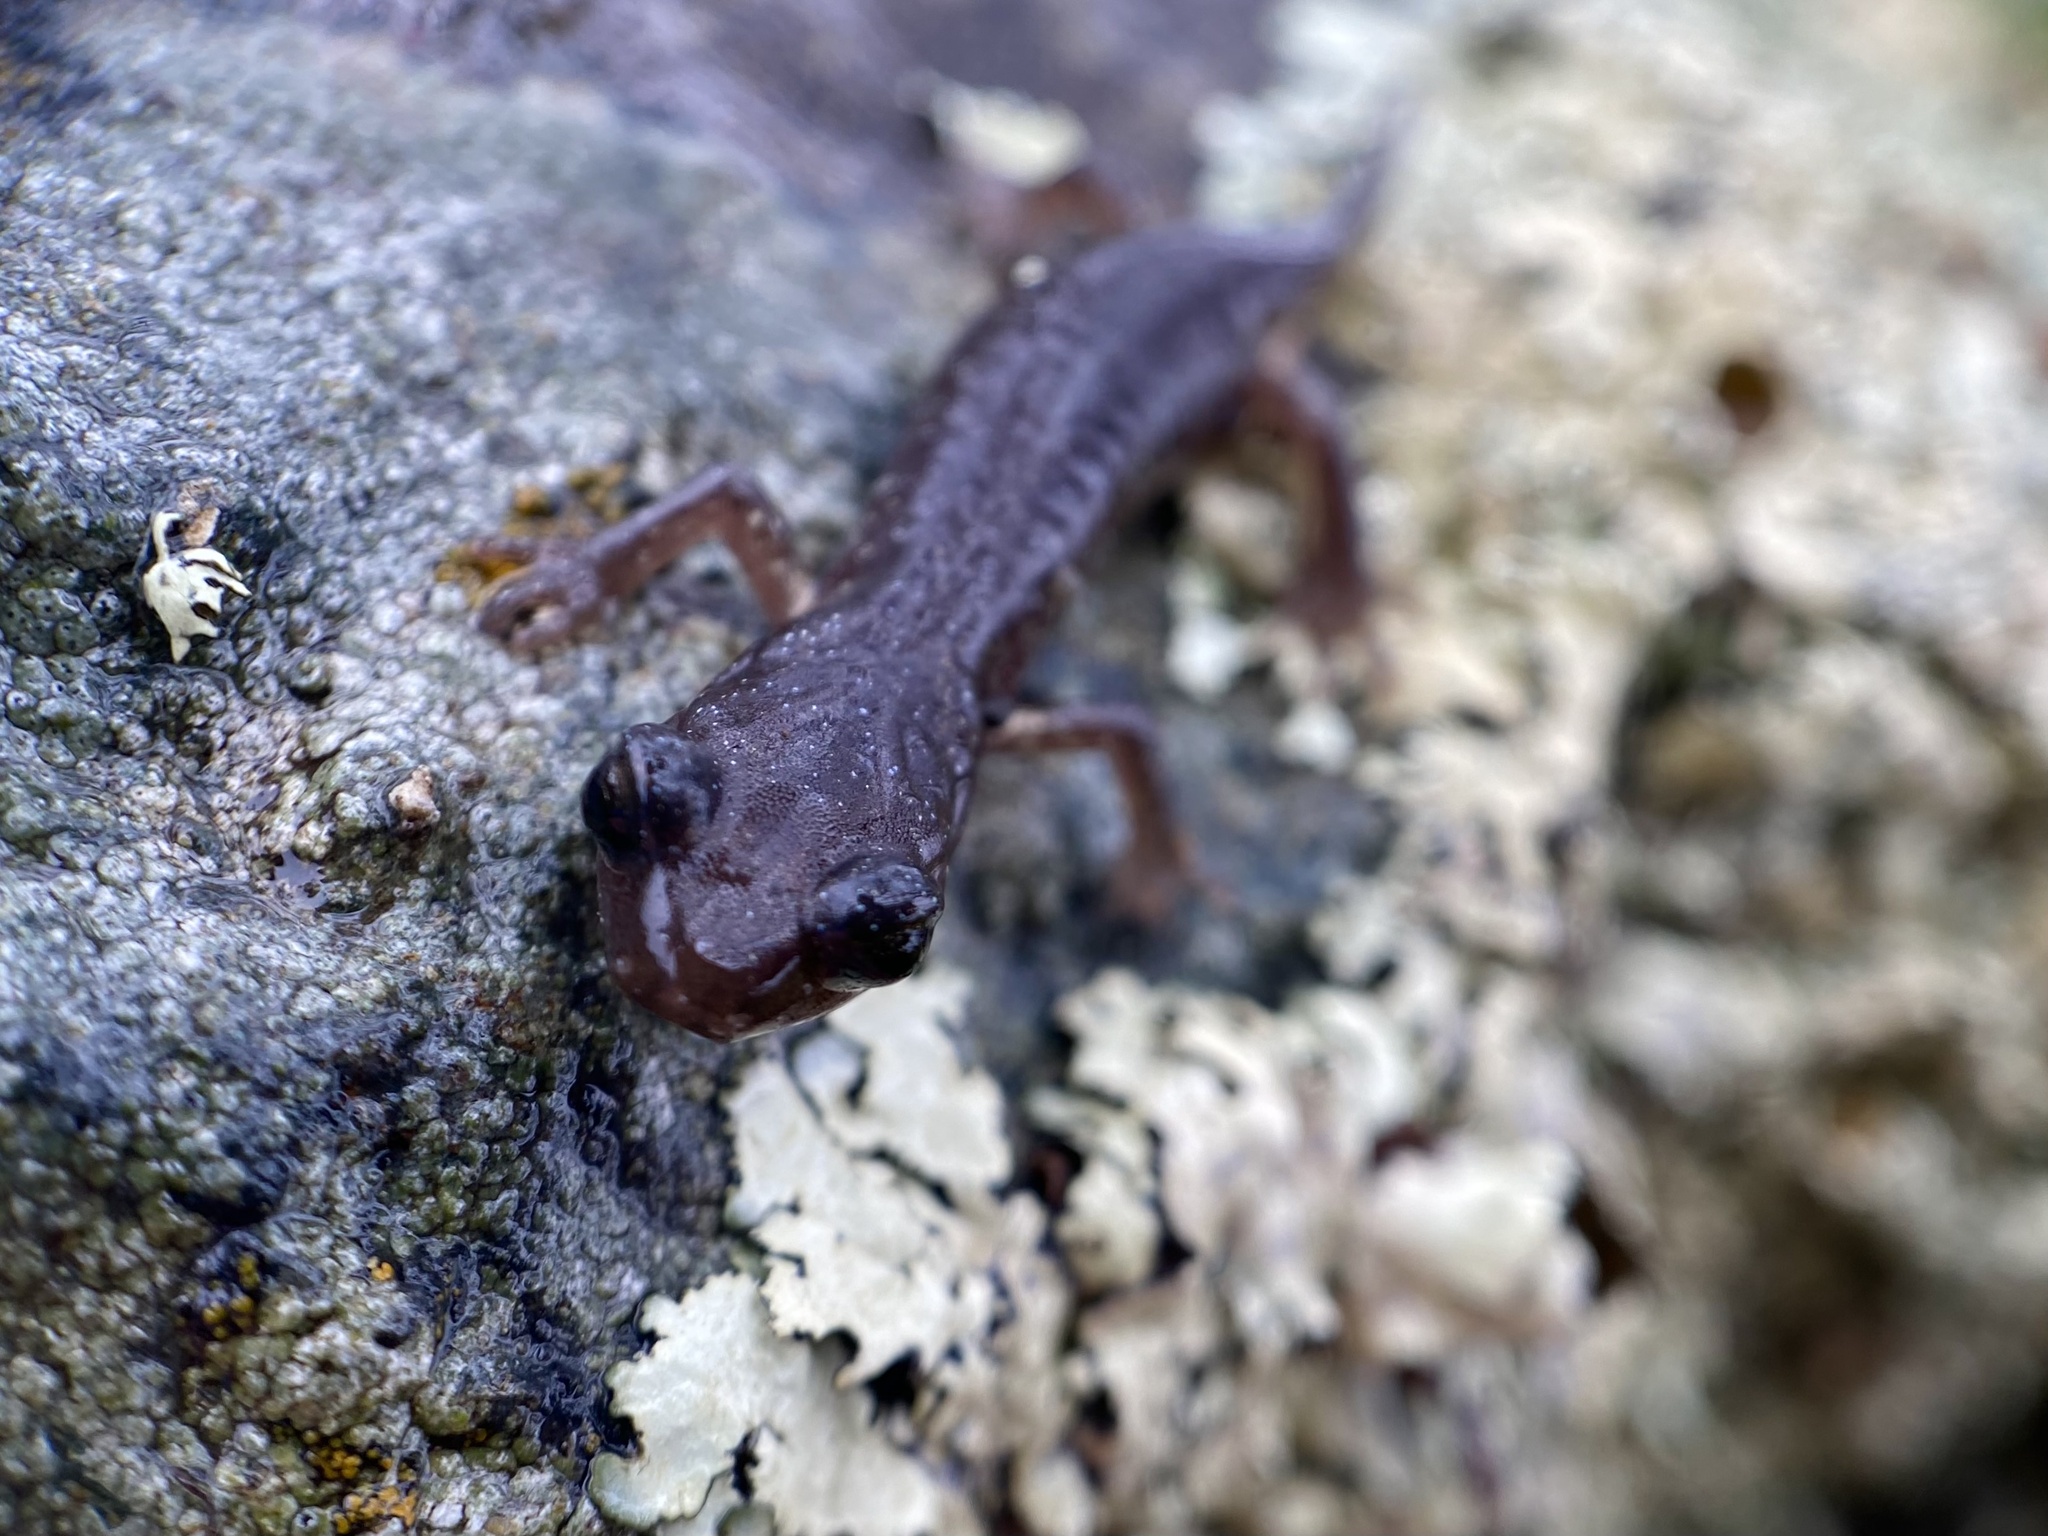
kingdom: Animalia
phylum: Chordata
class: Amphibia
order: Caudata
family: Plethodontidae
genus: Aneides
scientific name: Aneides lugubris
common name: Arboreal salamander
